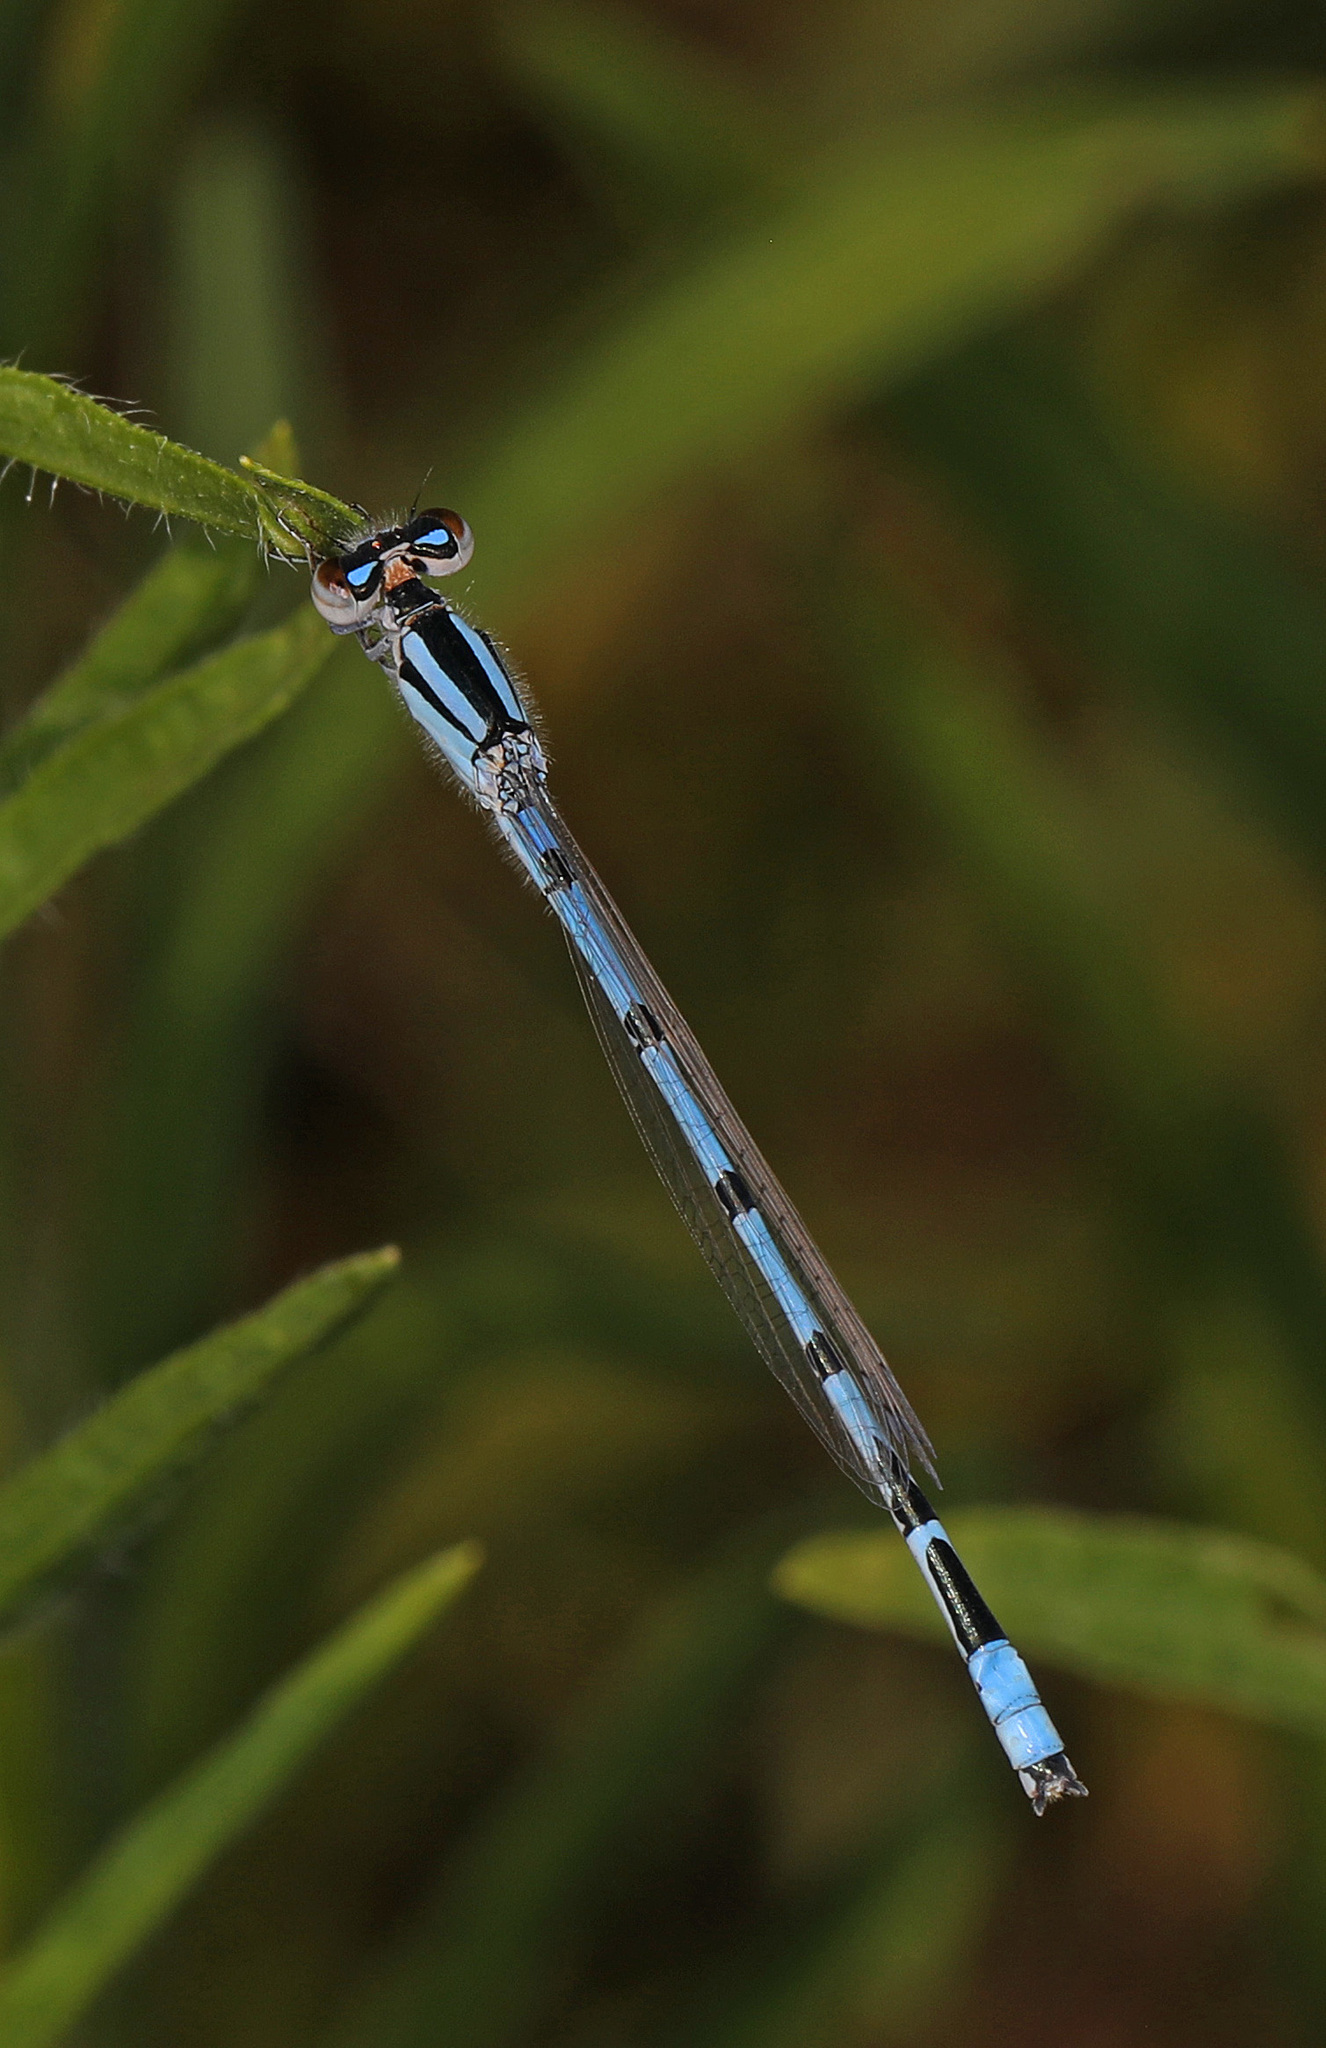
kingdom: Animalia
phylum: Arthropoda
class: Insecta
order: Odonata
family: Coenagrionidae
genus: Enallagma
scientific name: Enallagma civile
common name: Damselfly
